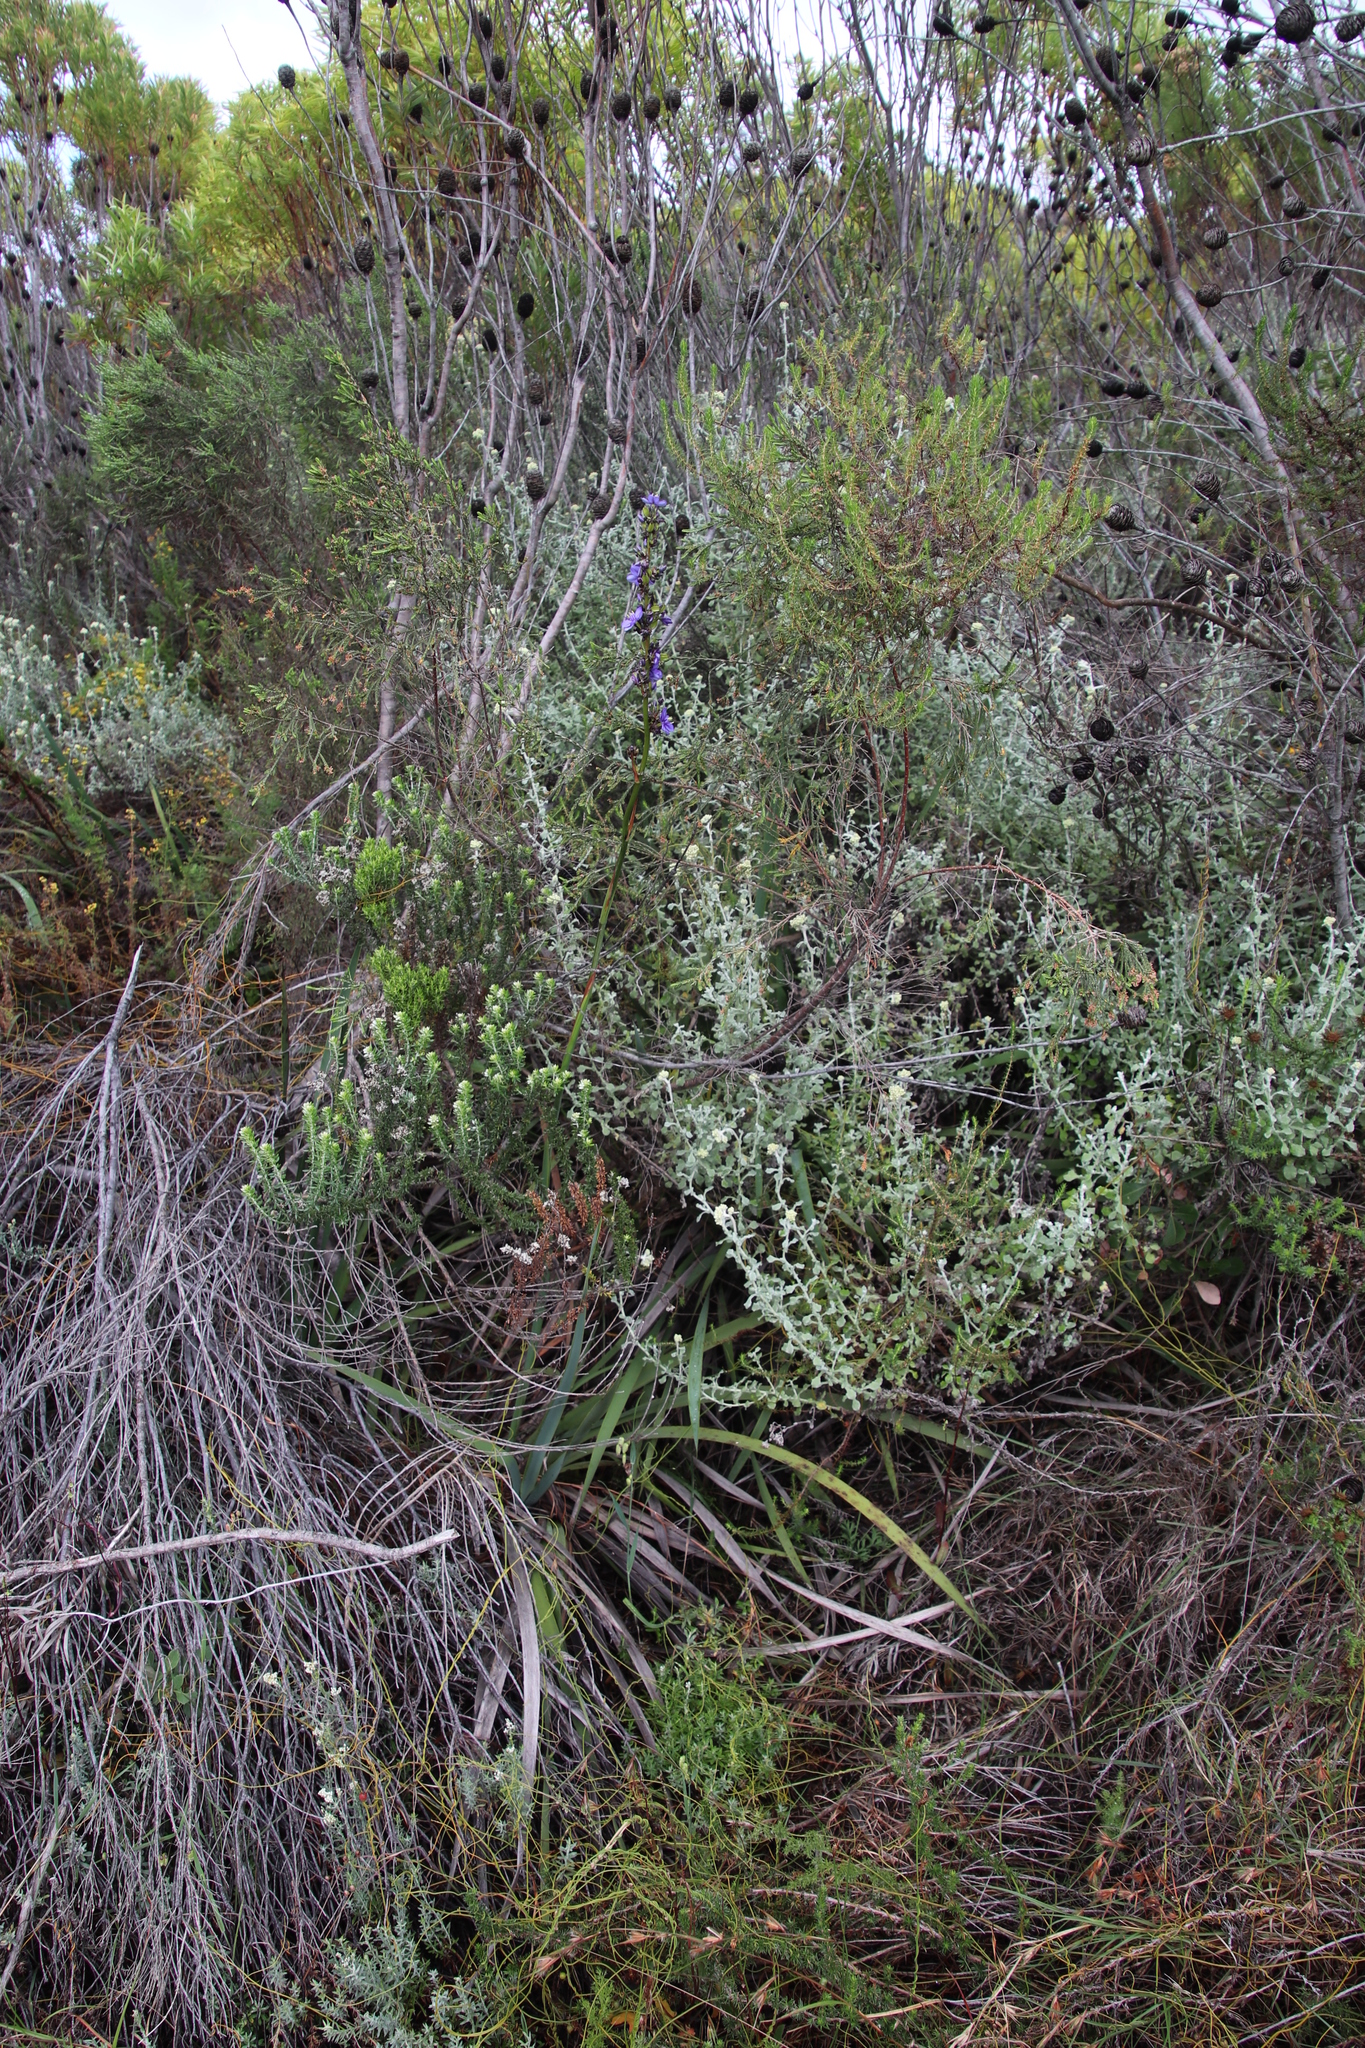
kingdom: Plantae
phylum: Tracheophyta
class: Liliopsida
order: Asparagales
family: Iridaceae
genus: Aristea
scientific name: Aristea capitata
